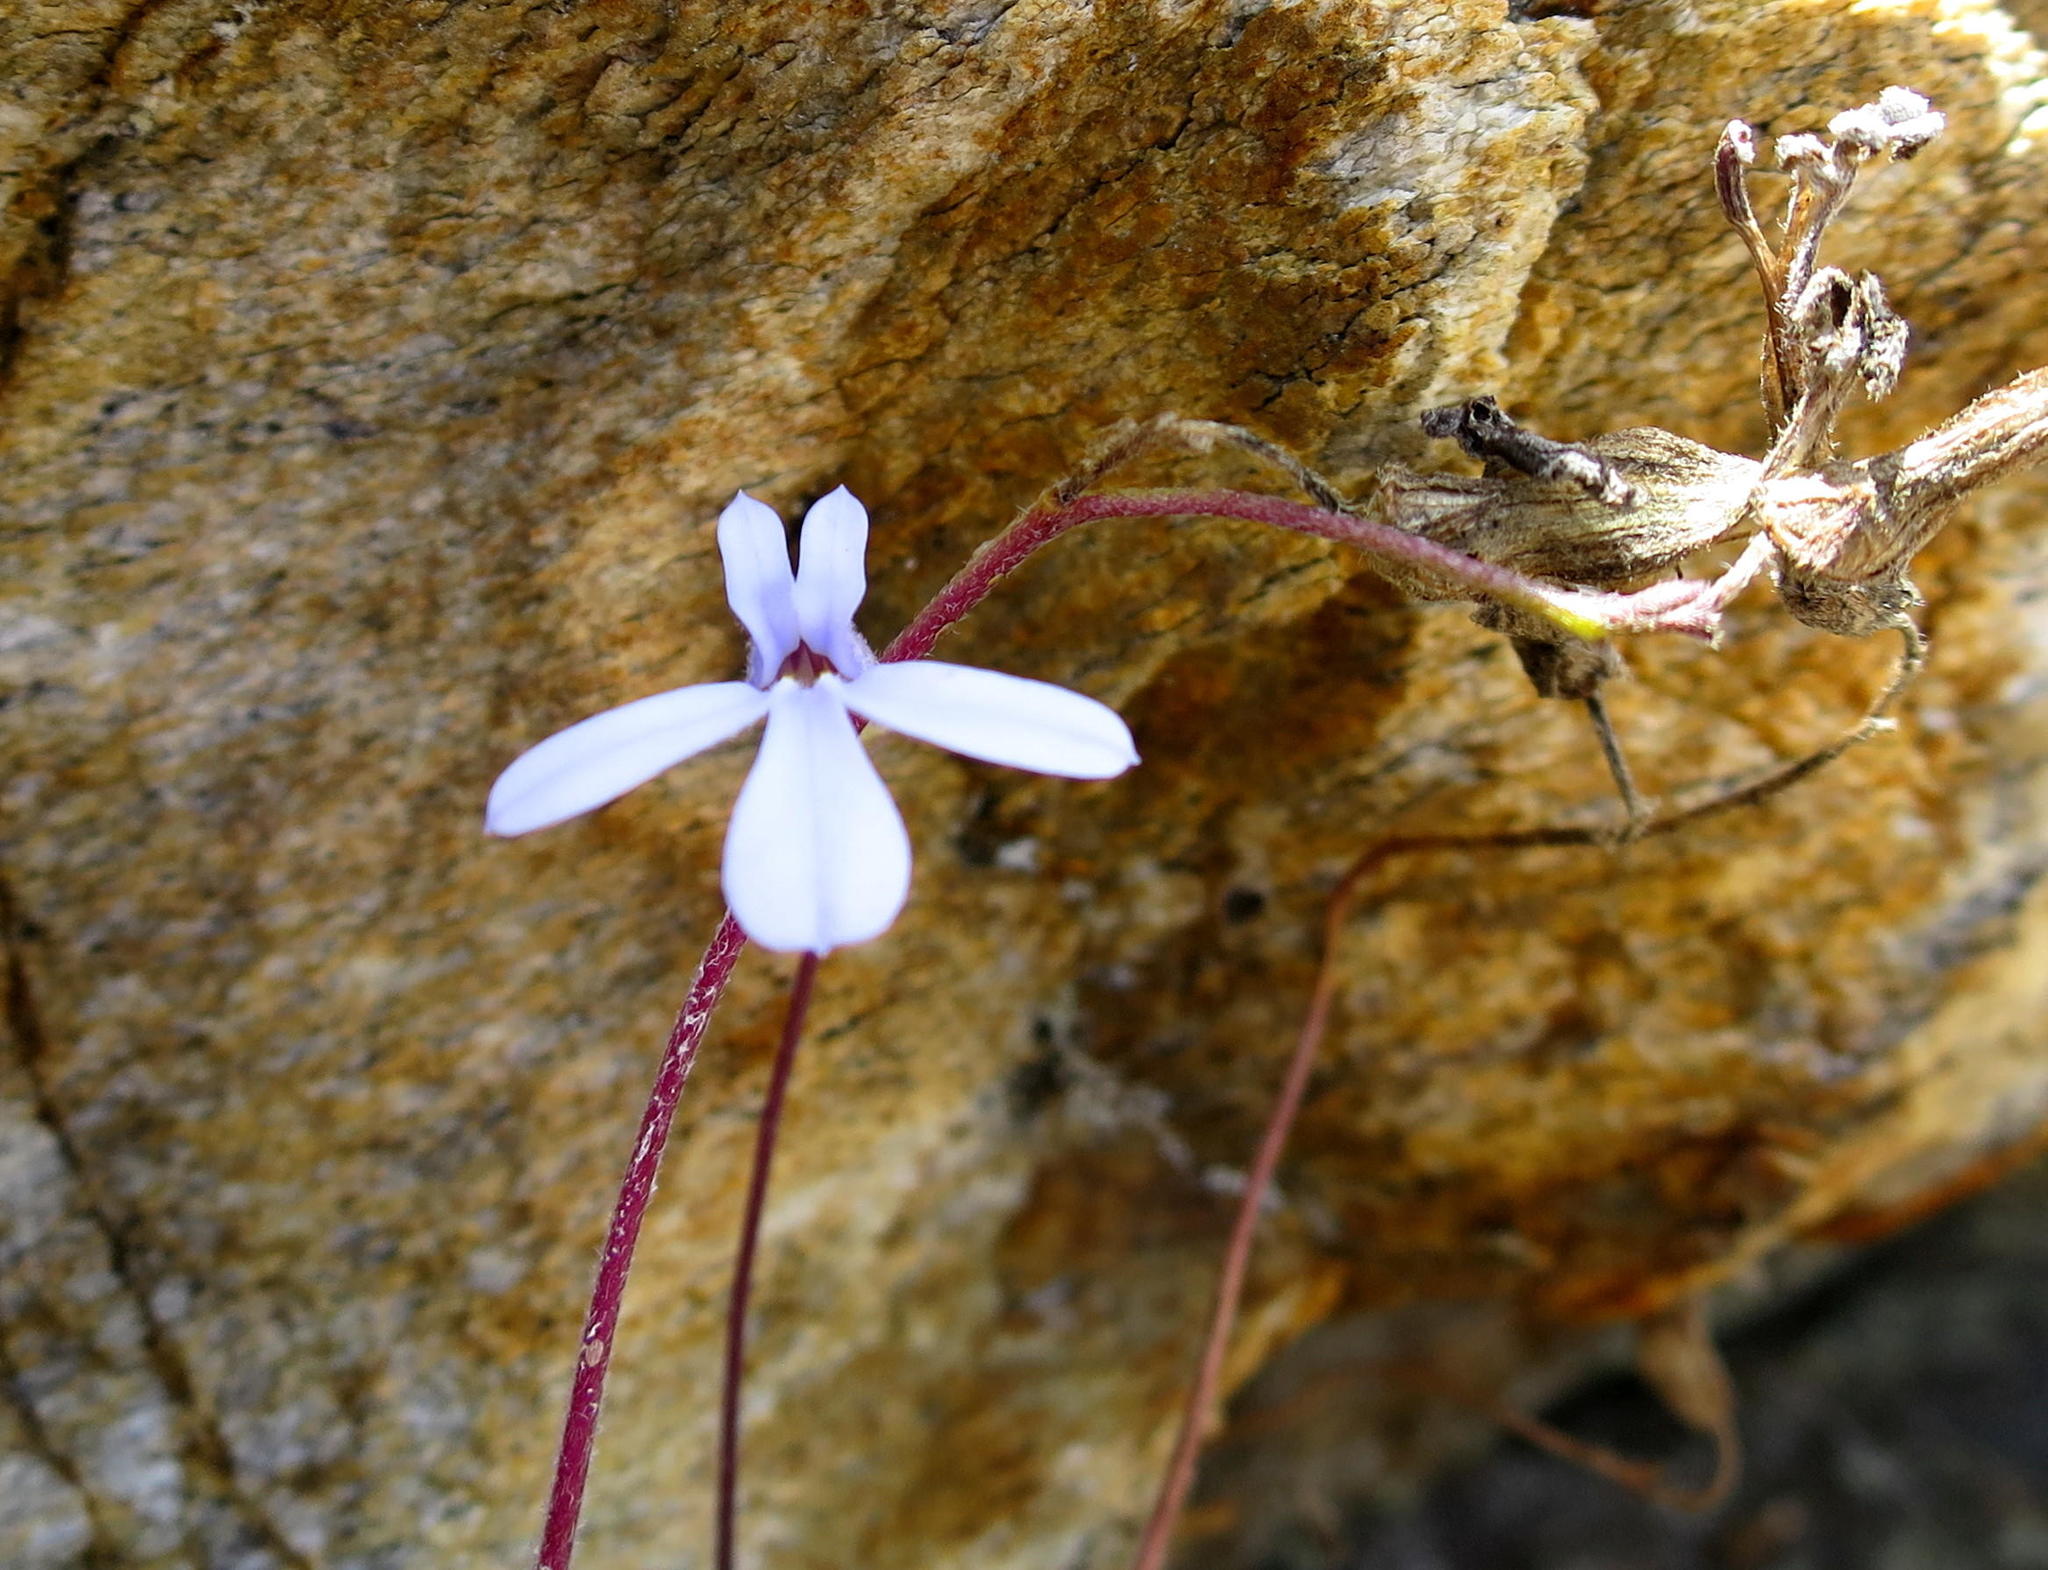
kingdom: Plantae
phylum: Tracheophyta
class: Magnoliopsida
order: Asterales
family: Campanulaceae
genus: Lobelia
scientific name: Lobelia dichroma
